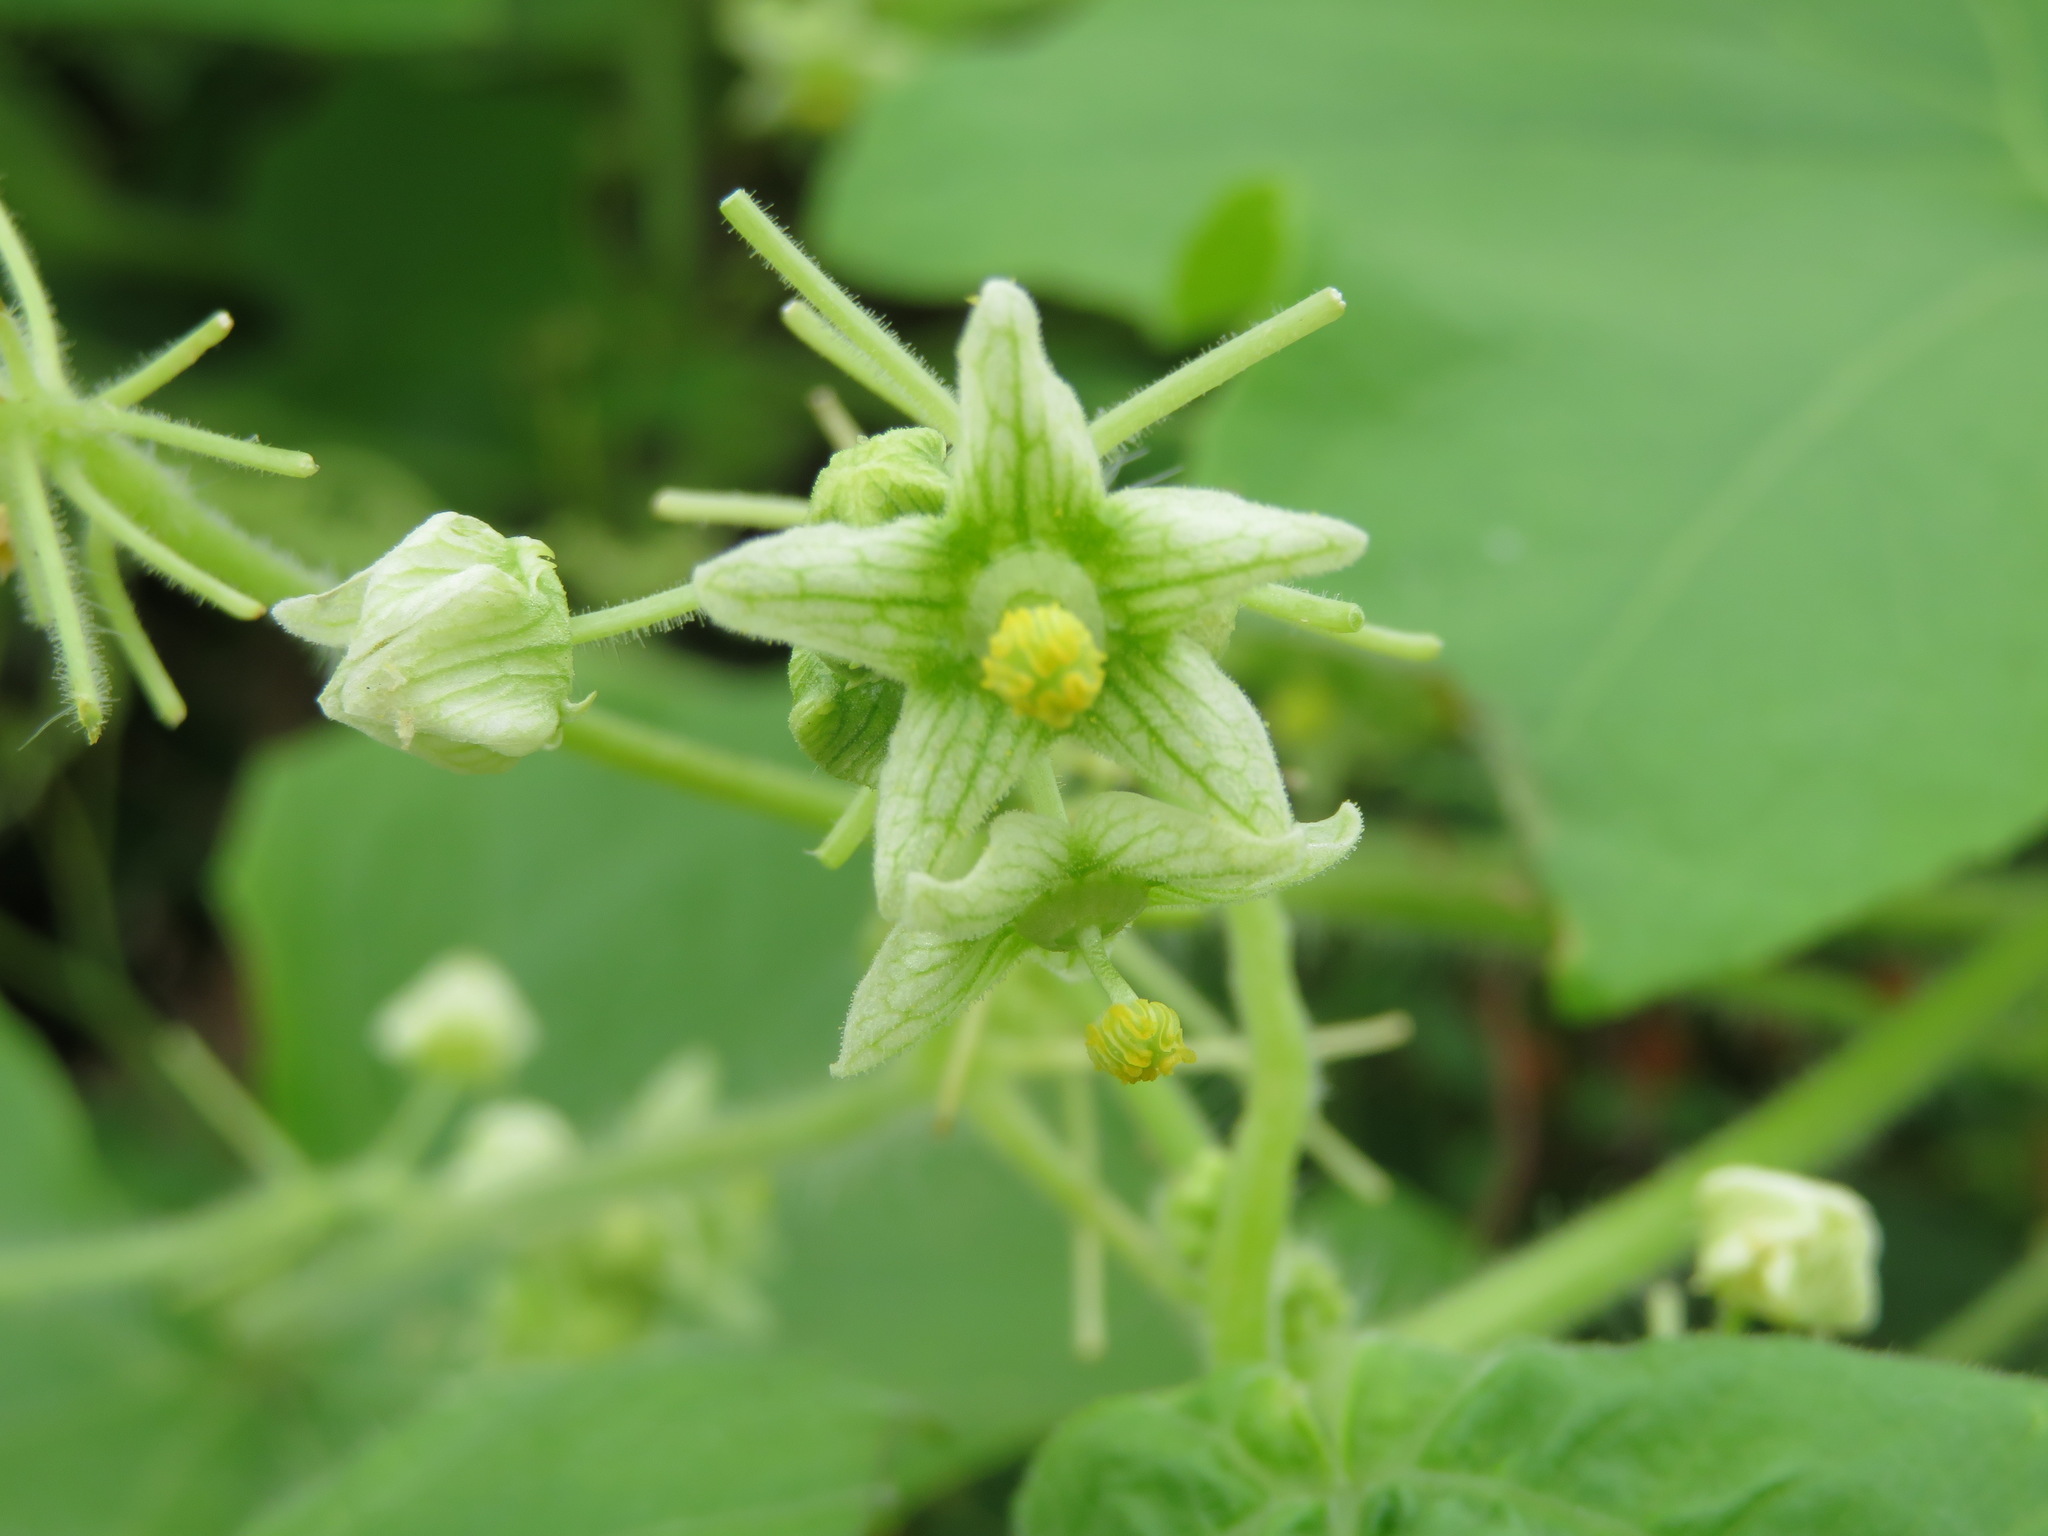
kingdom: Plantae
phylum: Tracheophyta
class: Magnoliopsida
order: Cucurbitales
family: Cucurbitaceae
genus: Sicyos
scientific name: Sicyos angulatus
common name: Angled burr cucumber
